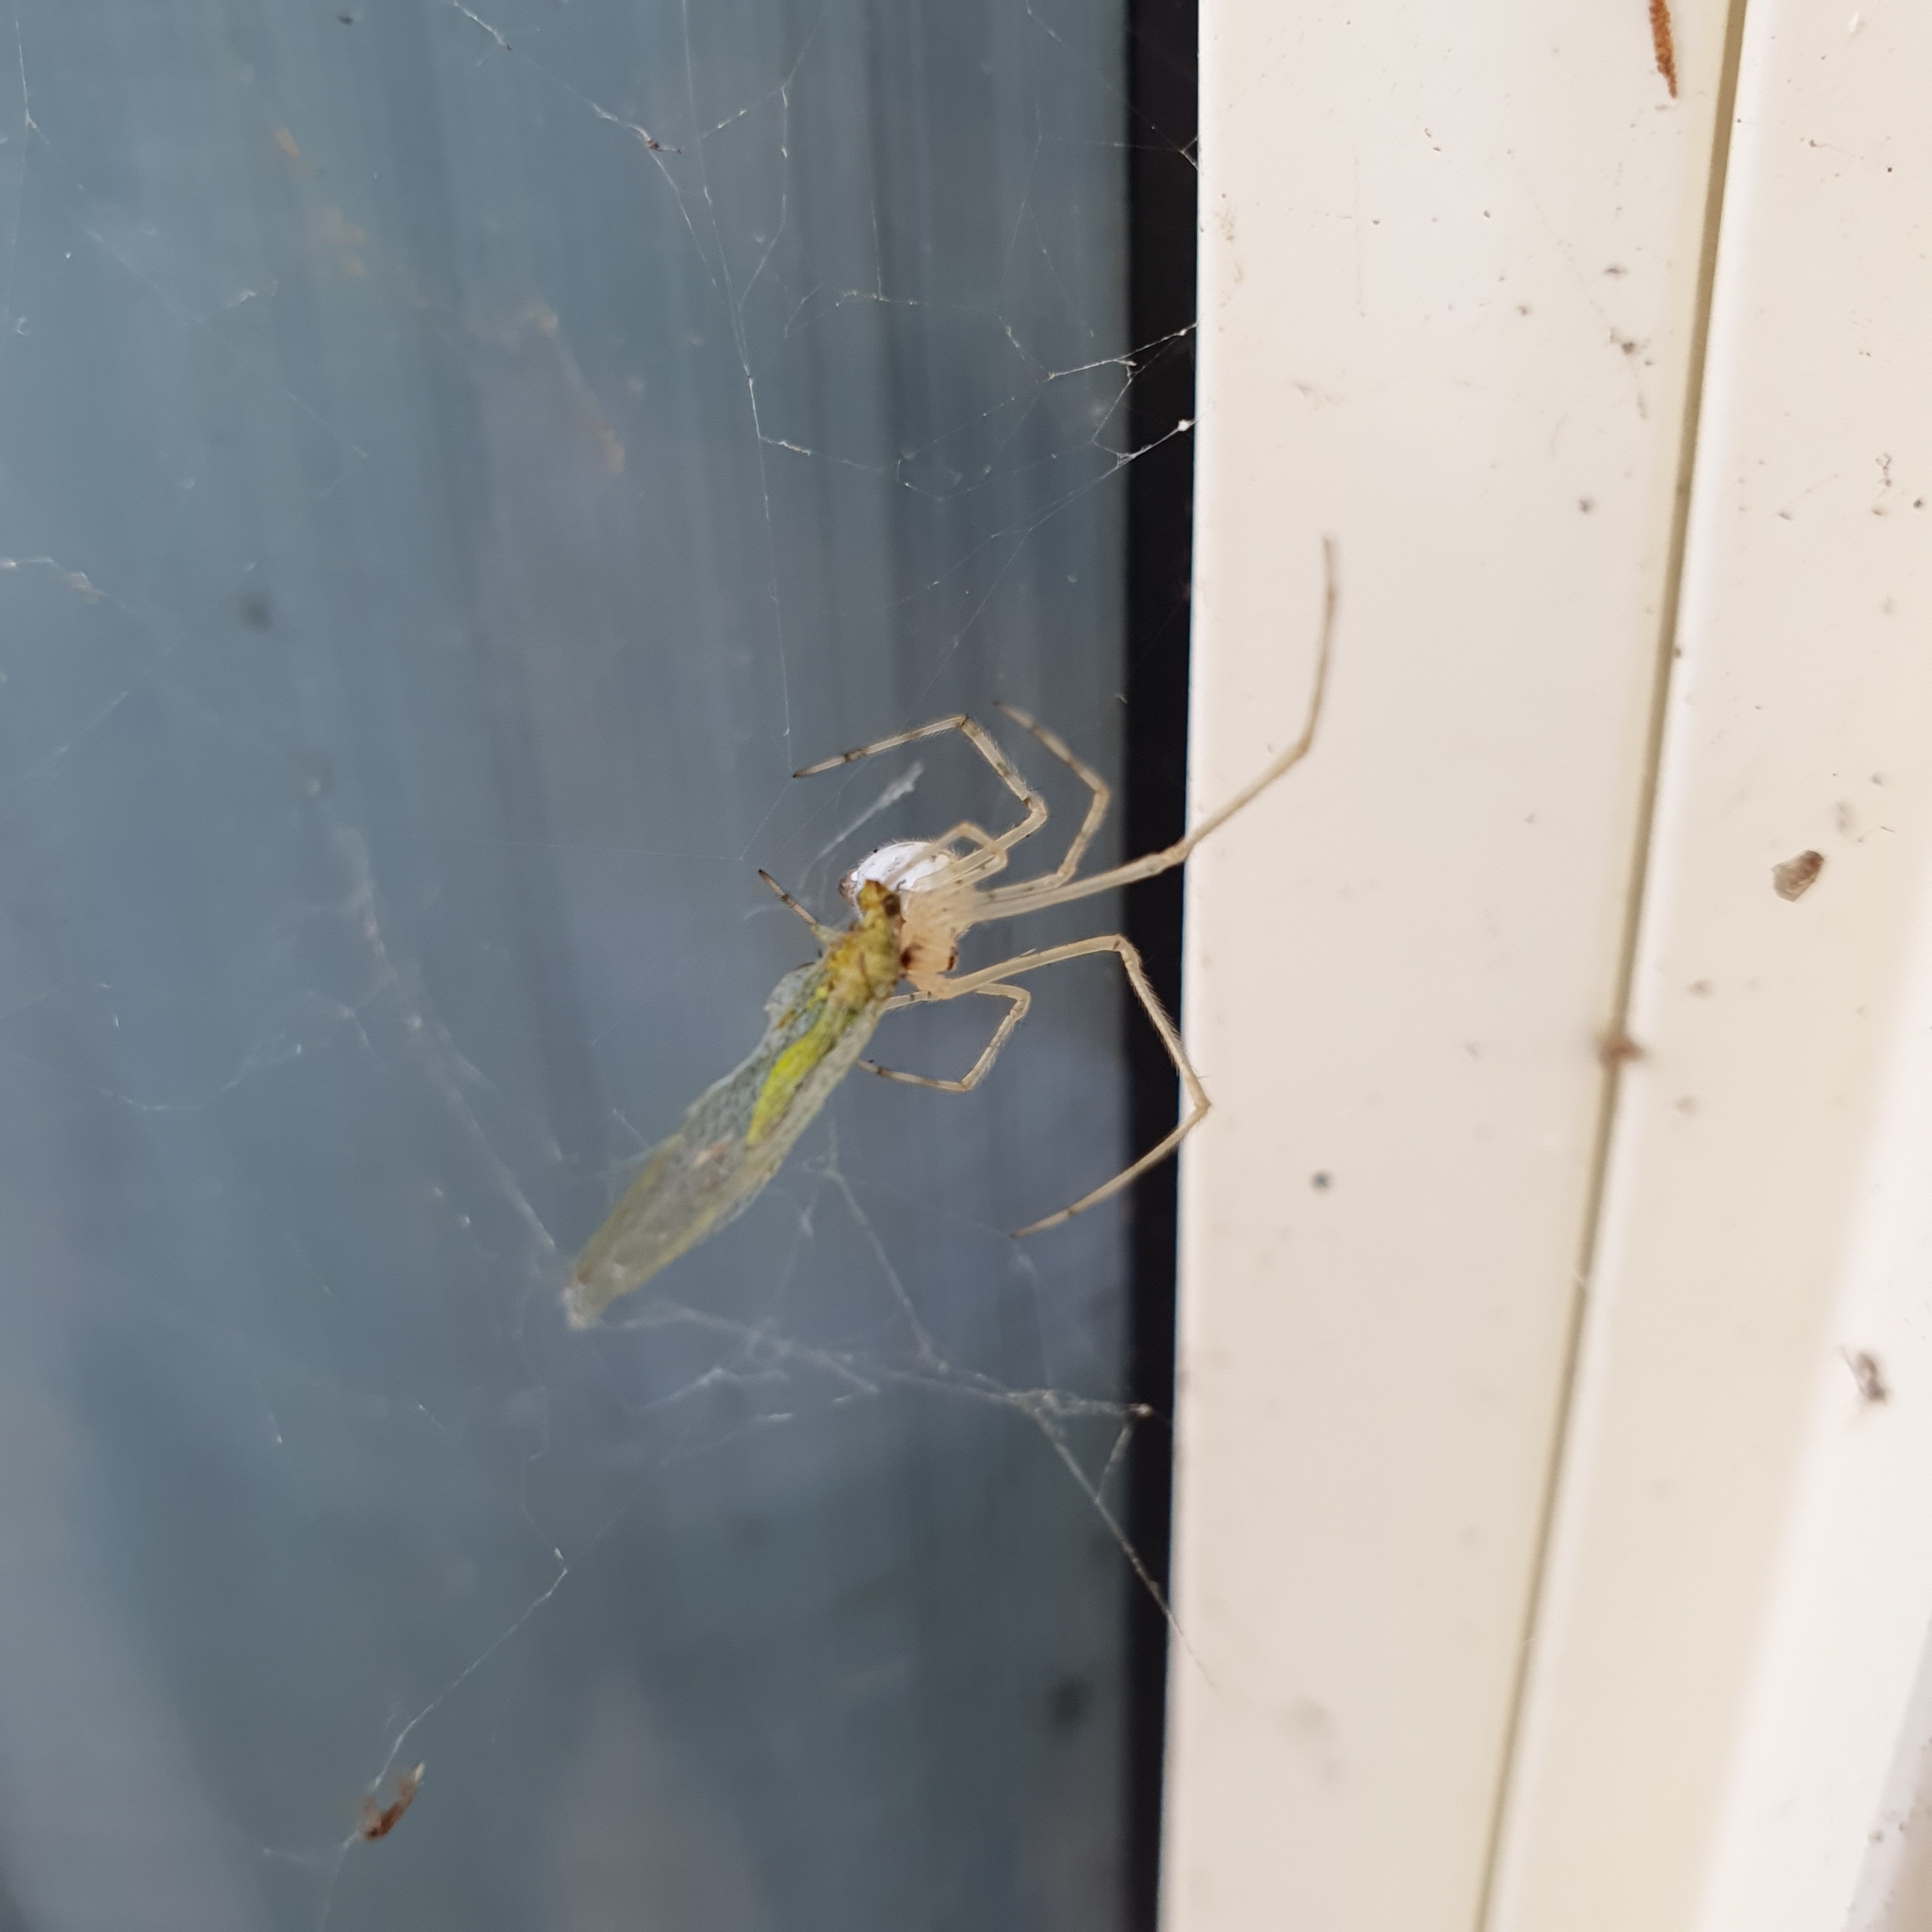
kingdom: Animalia
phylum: Arthropoda
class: Arachnida
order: Araneae
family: Theridiidae
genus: Cryptachaea
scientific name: Cryptachaea gigantipes
